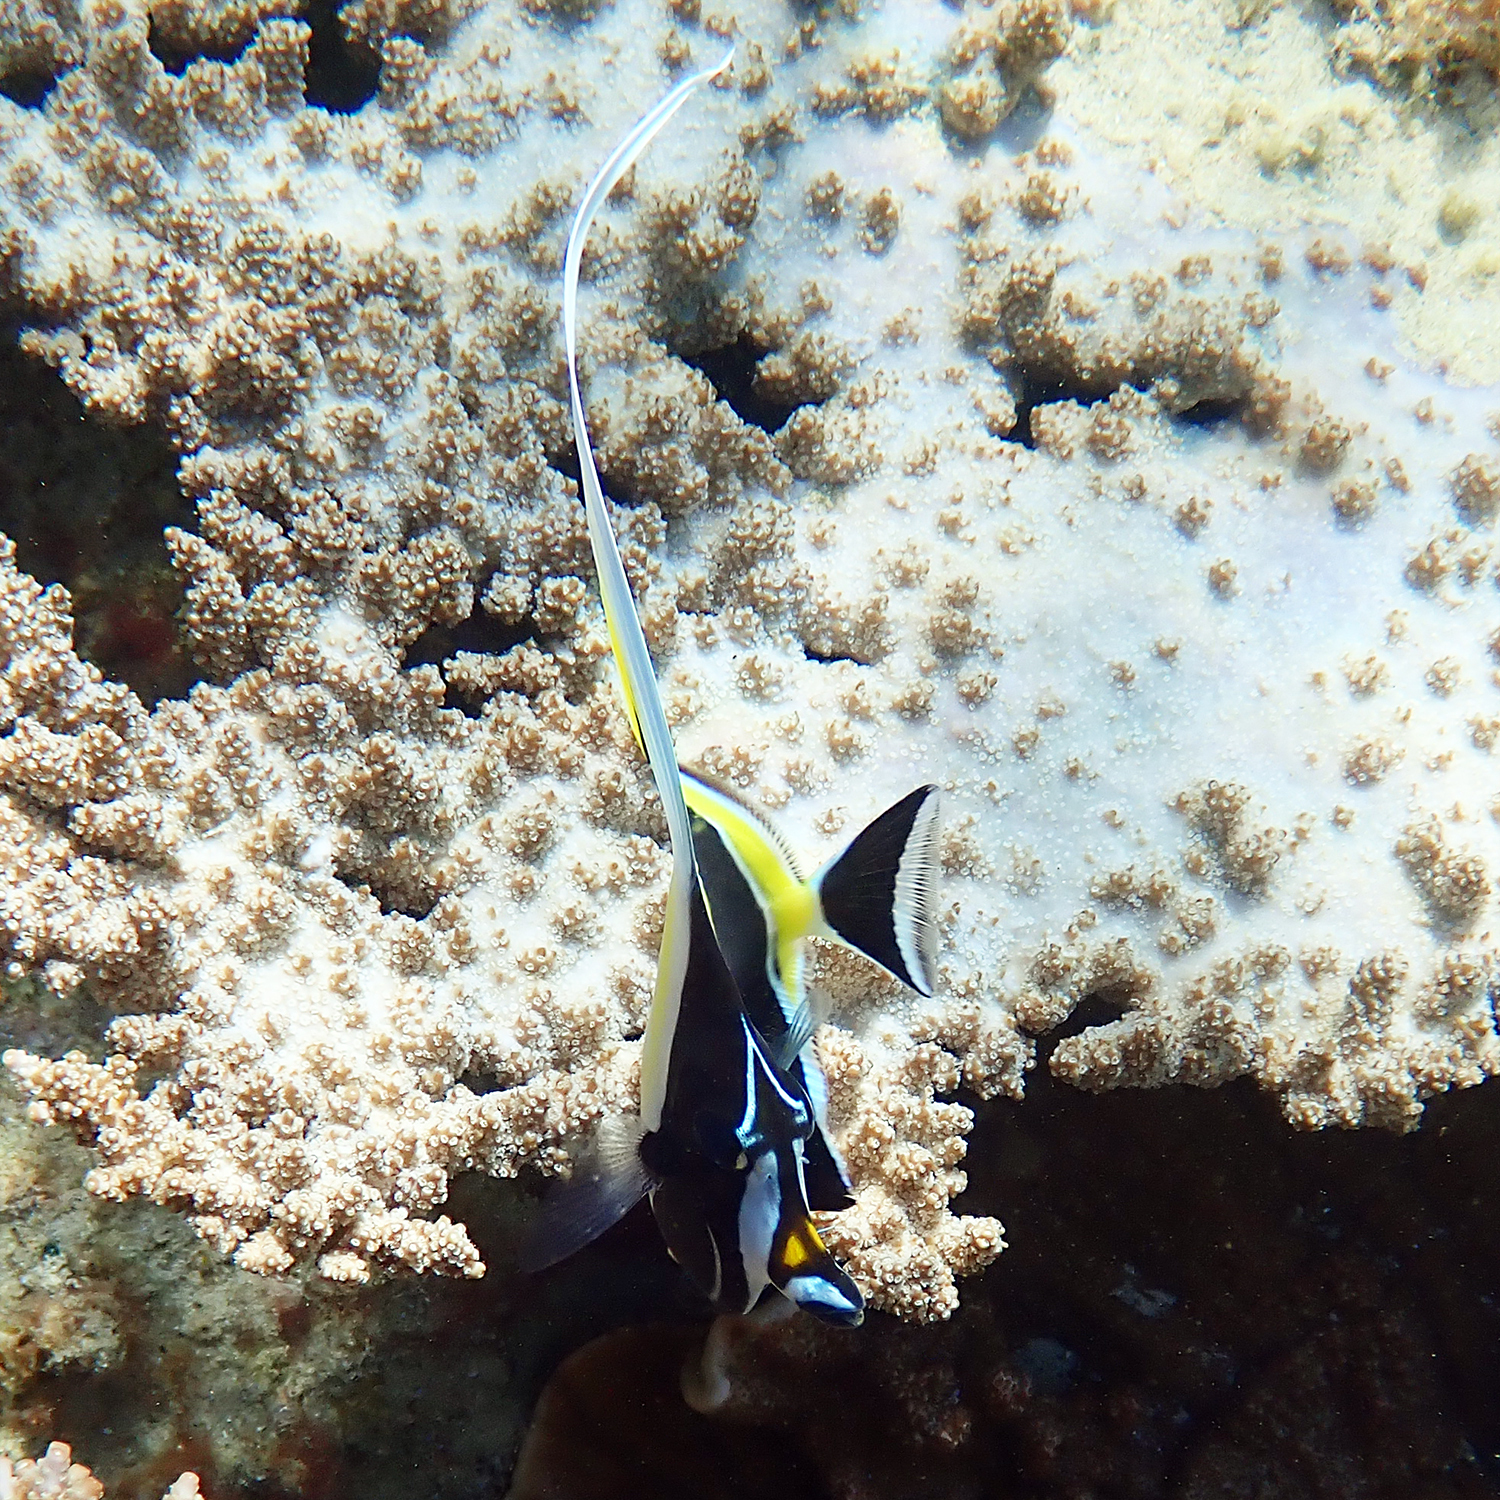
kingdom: Animalia
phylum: Chordata
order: Perciformes
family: Zanclidae
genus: Zanclus
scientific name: Zanclus cornutus
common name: Moorish idol
